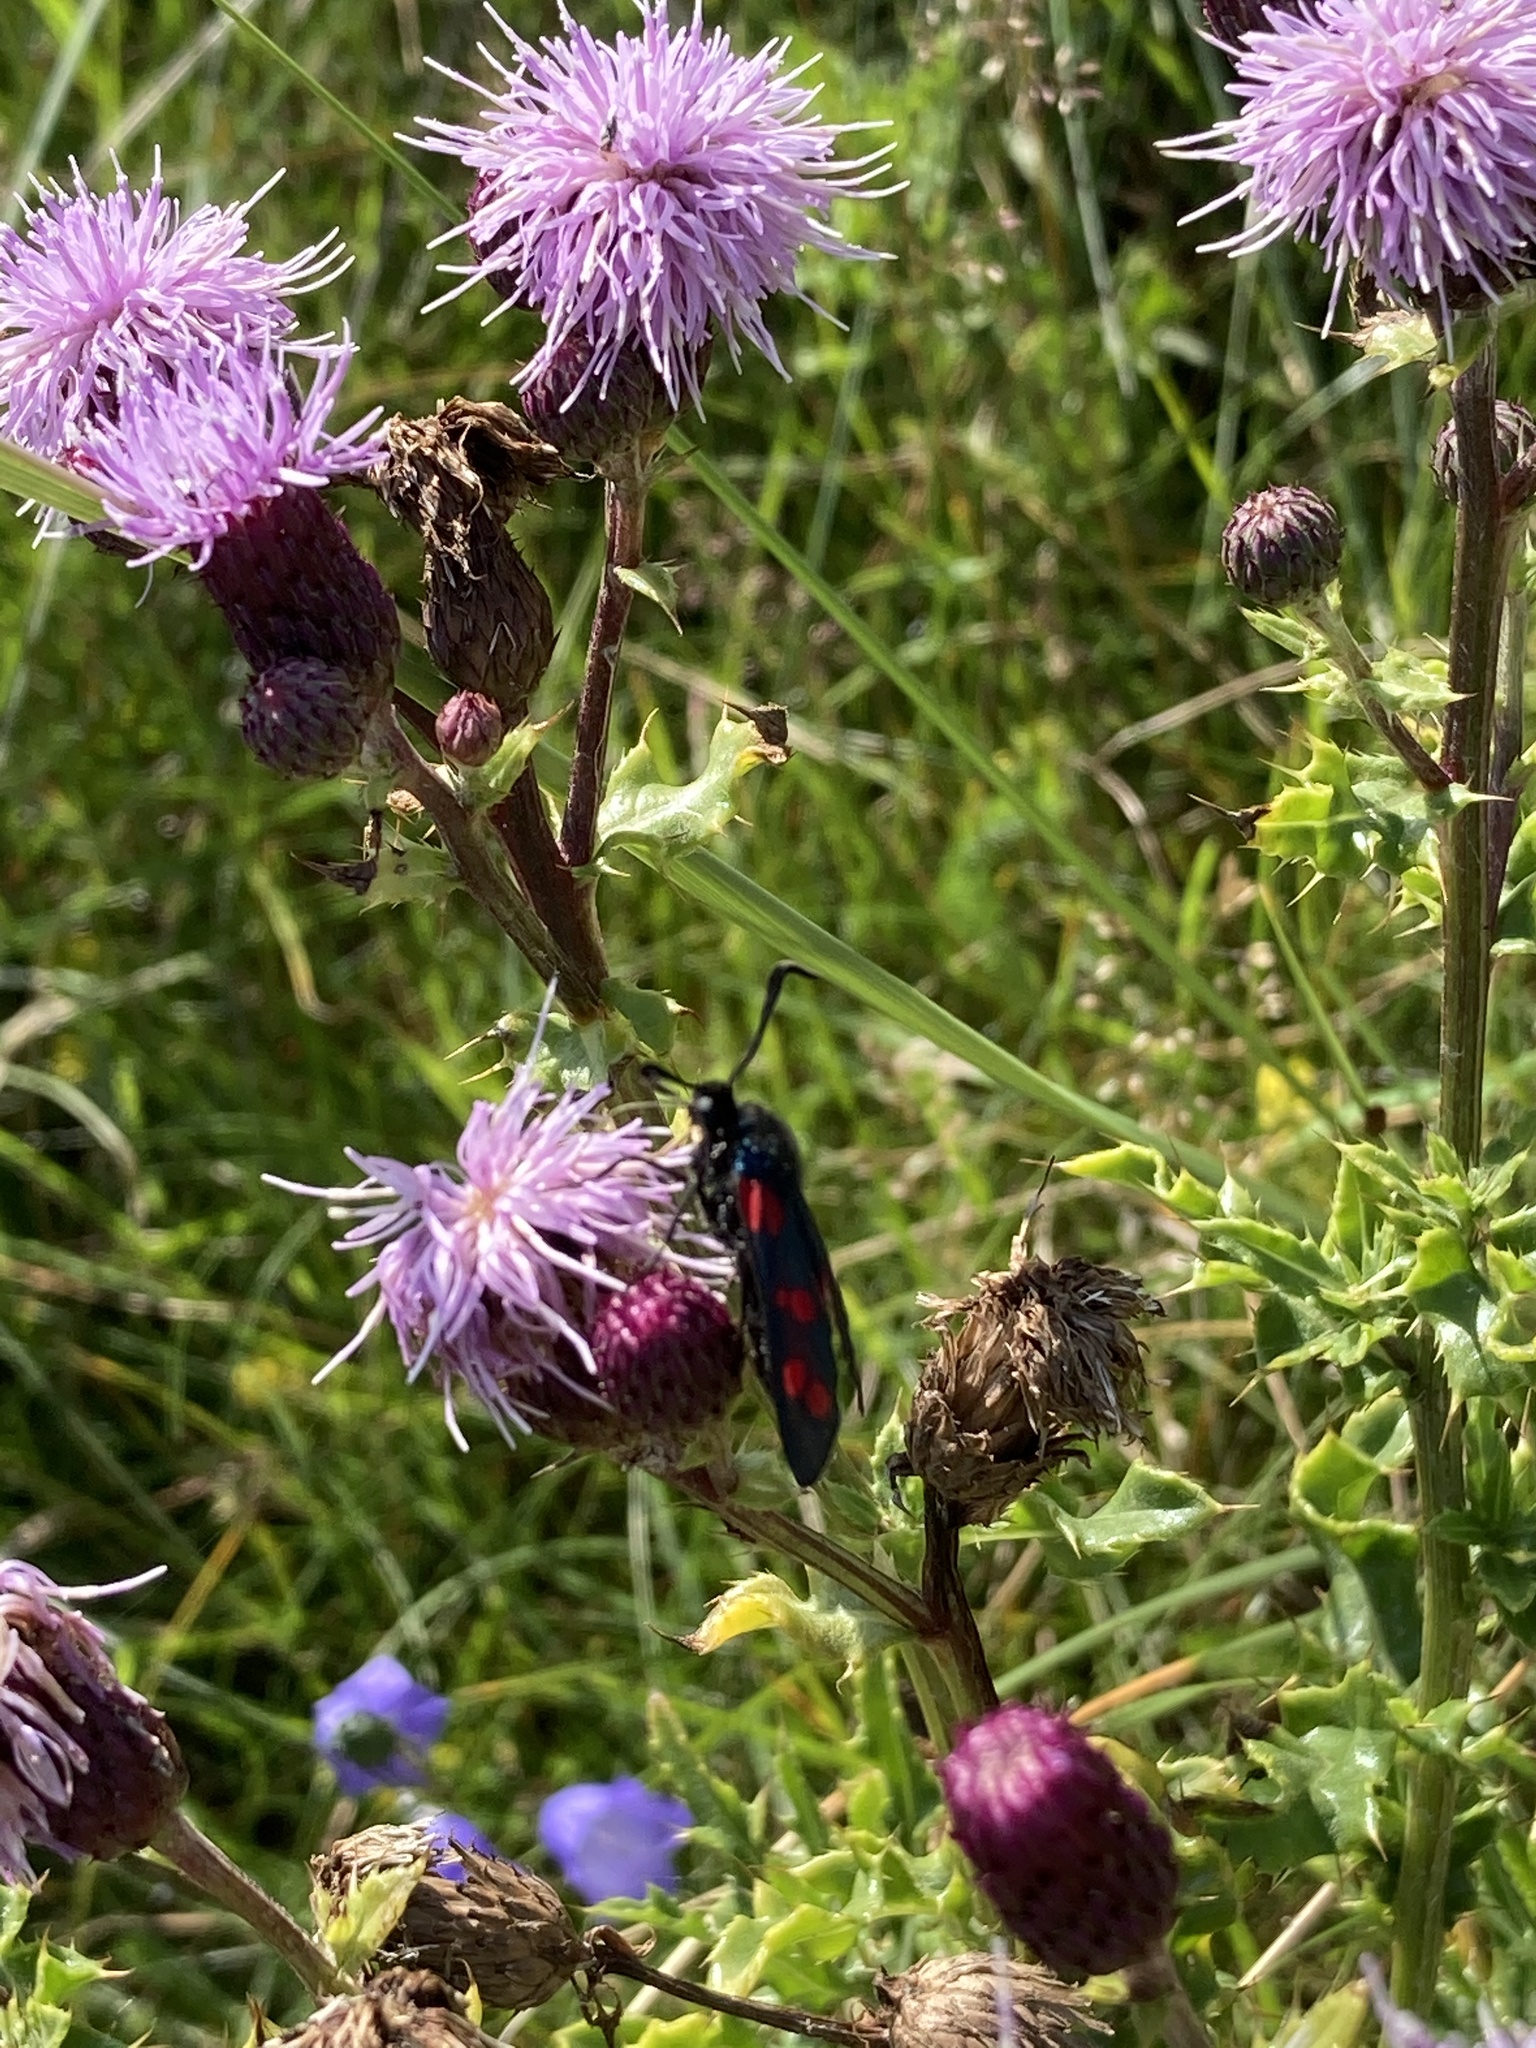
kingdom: Animalia
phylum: Arthropoda
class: Insecta
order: Lepidoptera
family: Zygaenidae
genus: Zygaena
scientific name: Zygaena filipendulae
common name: Six-spot burnet
